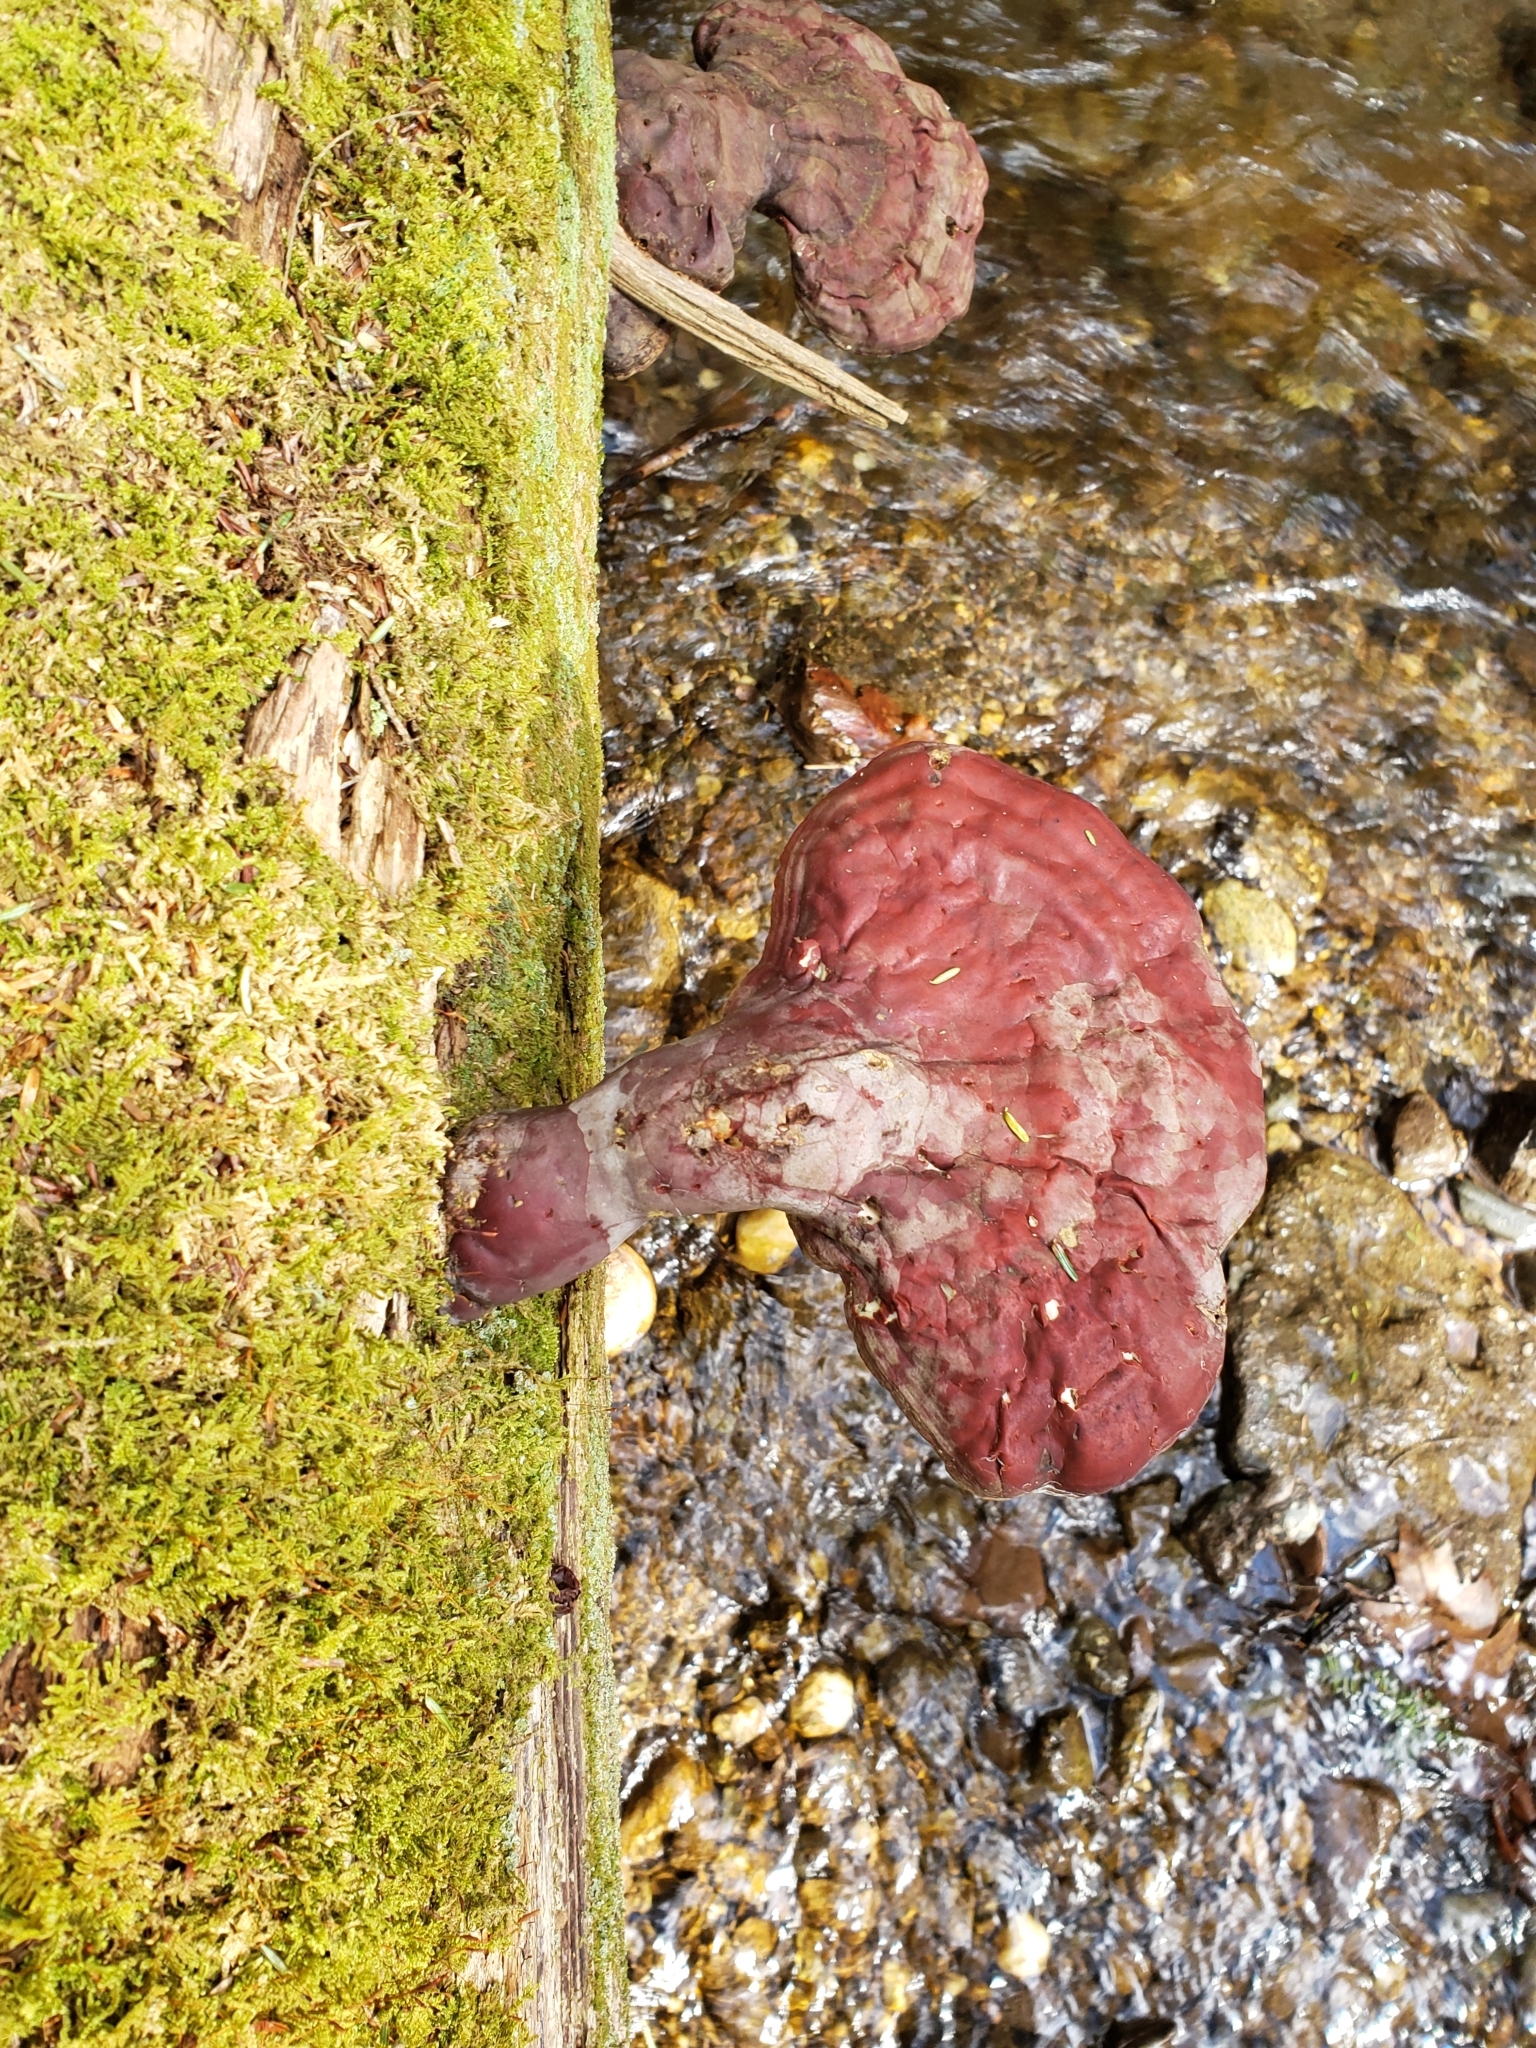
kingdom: Fungi
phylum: Basidiomycota
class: Agaricomycetes
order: Polyporales
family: Polyporaceae
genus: Ganoderma
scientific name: Ganoderma tsugae
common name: Hemlock varnish shelf
